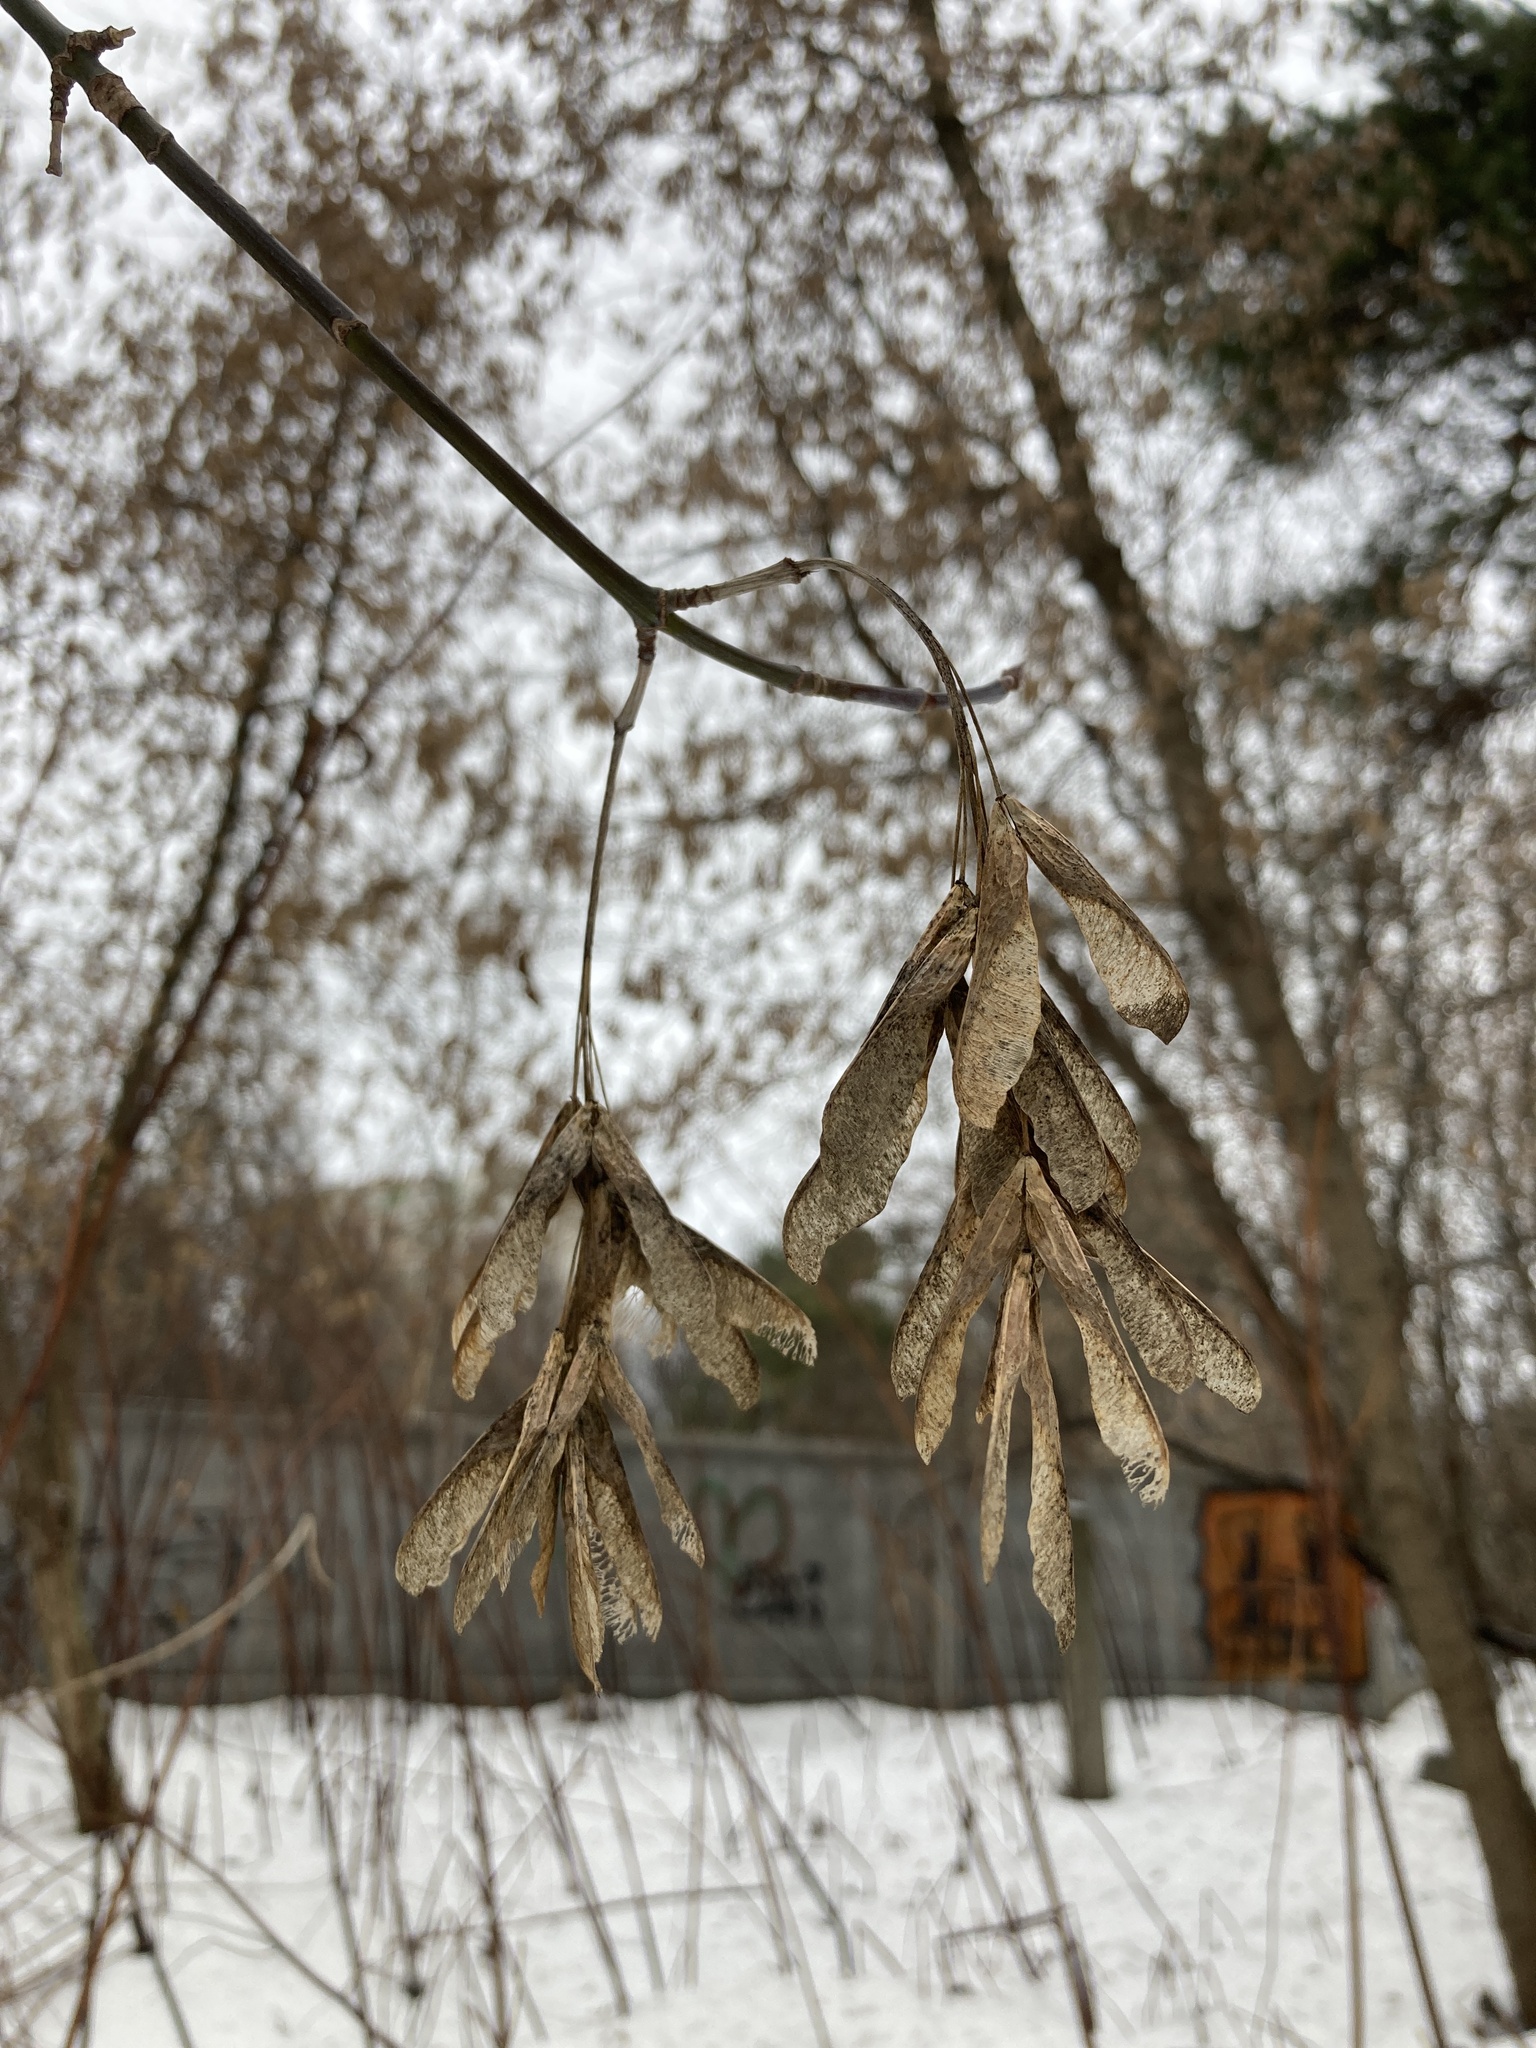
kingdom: Plantae
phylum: Tracheophyta
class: Magnoliopsida
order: Sapindales
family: Sapindaceae
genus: Acer
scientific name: Acer negundo
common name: Ashleaf maple
